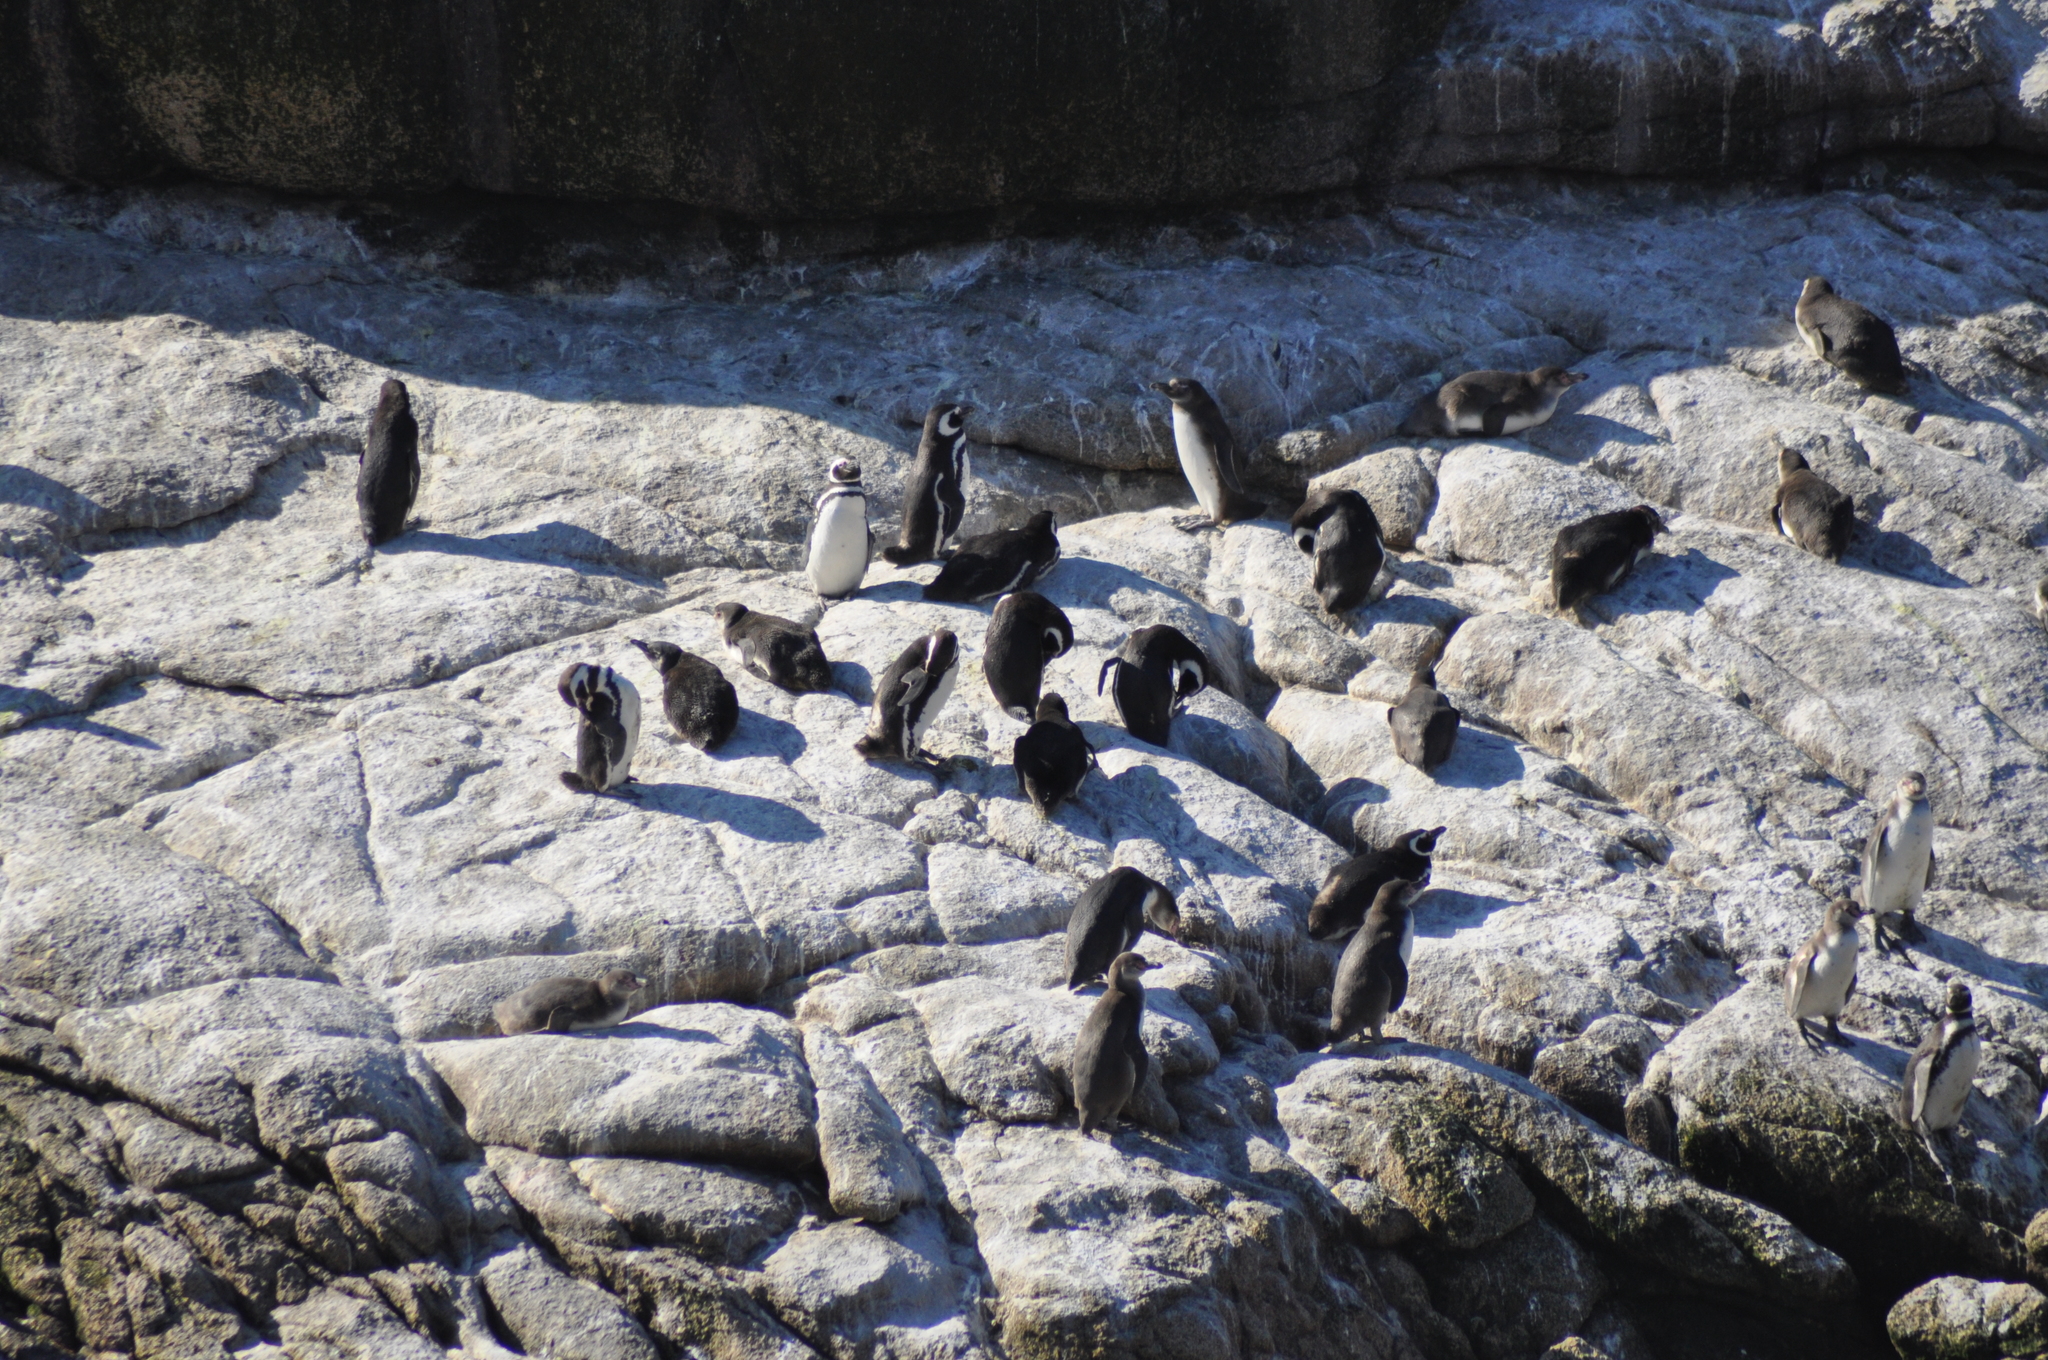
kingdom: Animalia
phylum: Chordata
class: Aves
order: Sphenisciformes
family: Spheniscidae
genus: Spheniscus
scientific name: Spheniscus magellanicus
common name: Magellanic penguin
